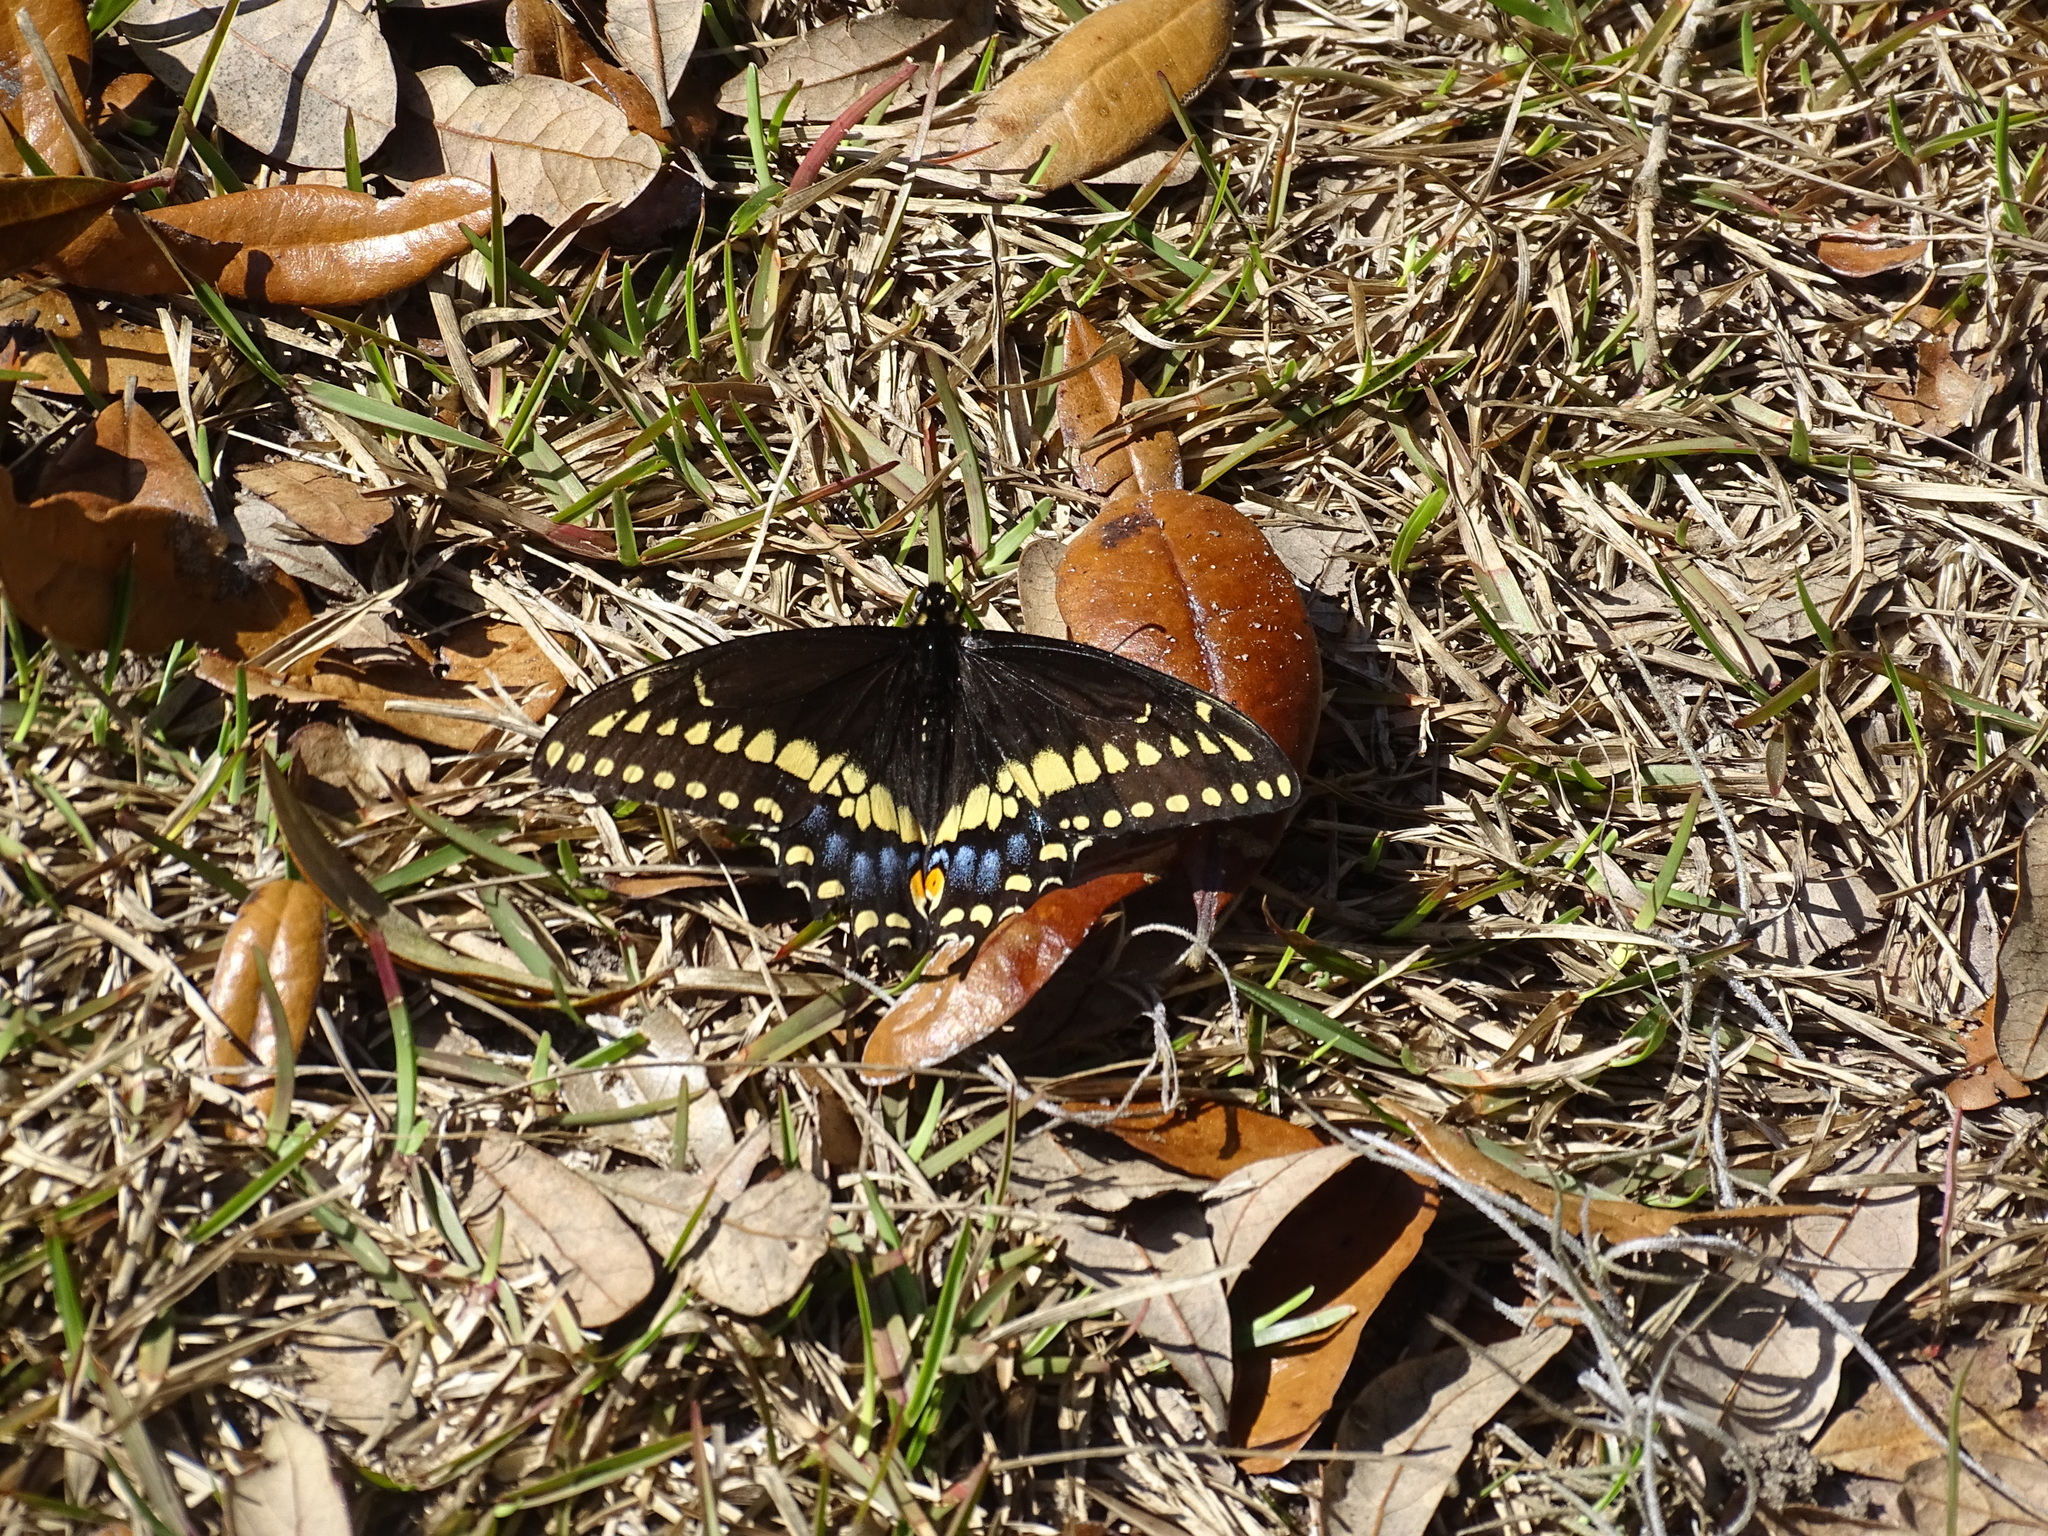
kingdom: Animalia
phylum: Arthropoda
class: Insecta
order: Lepidoptera
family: Papilionidae
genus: Papilio
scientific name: Papilio polyxenes
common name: Black swallowtail
